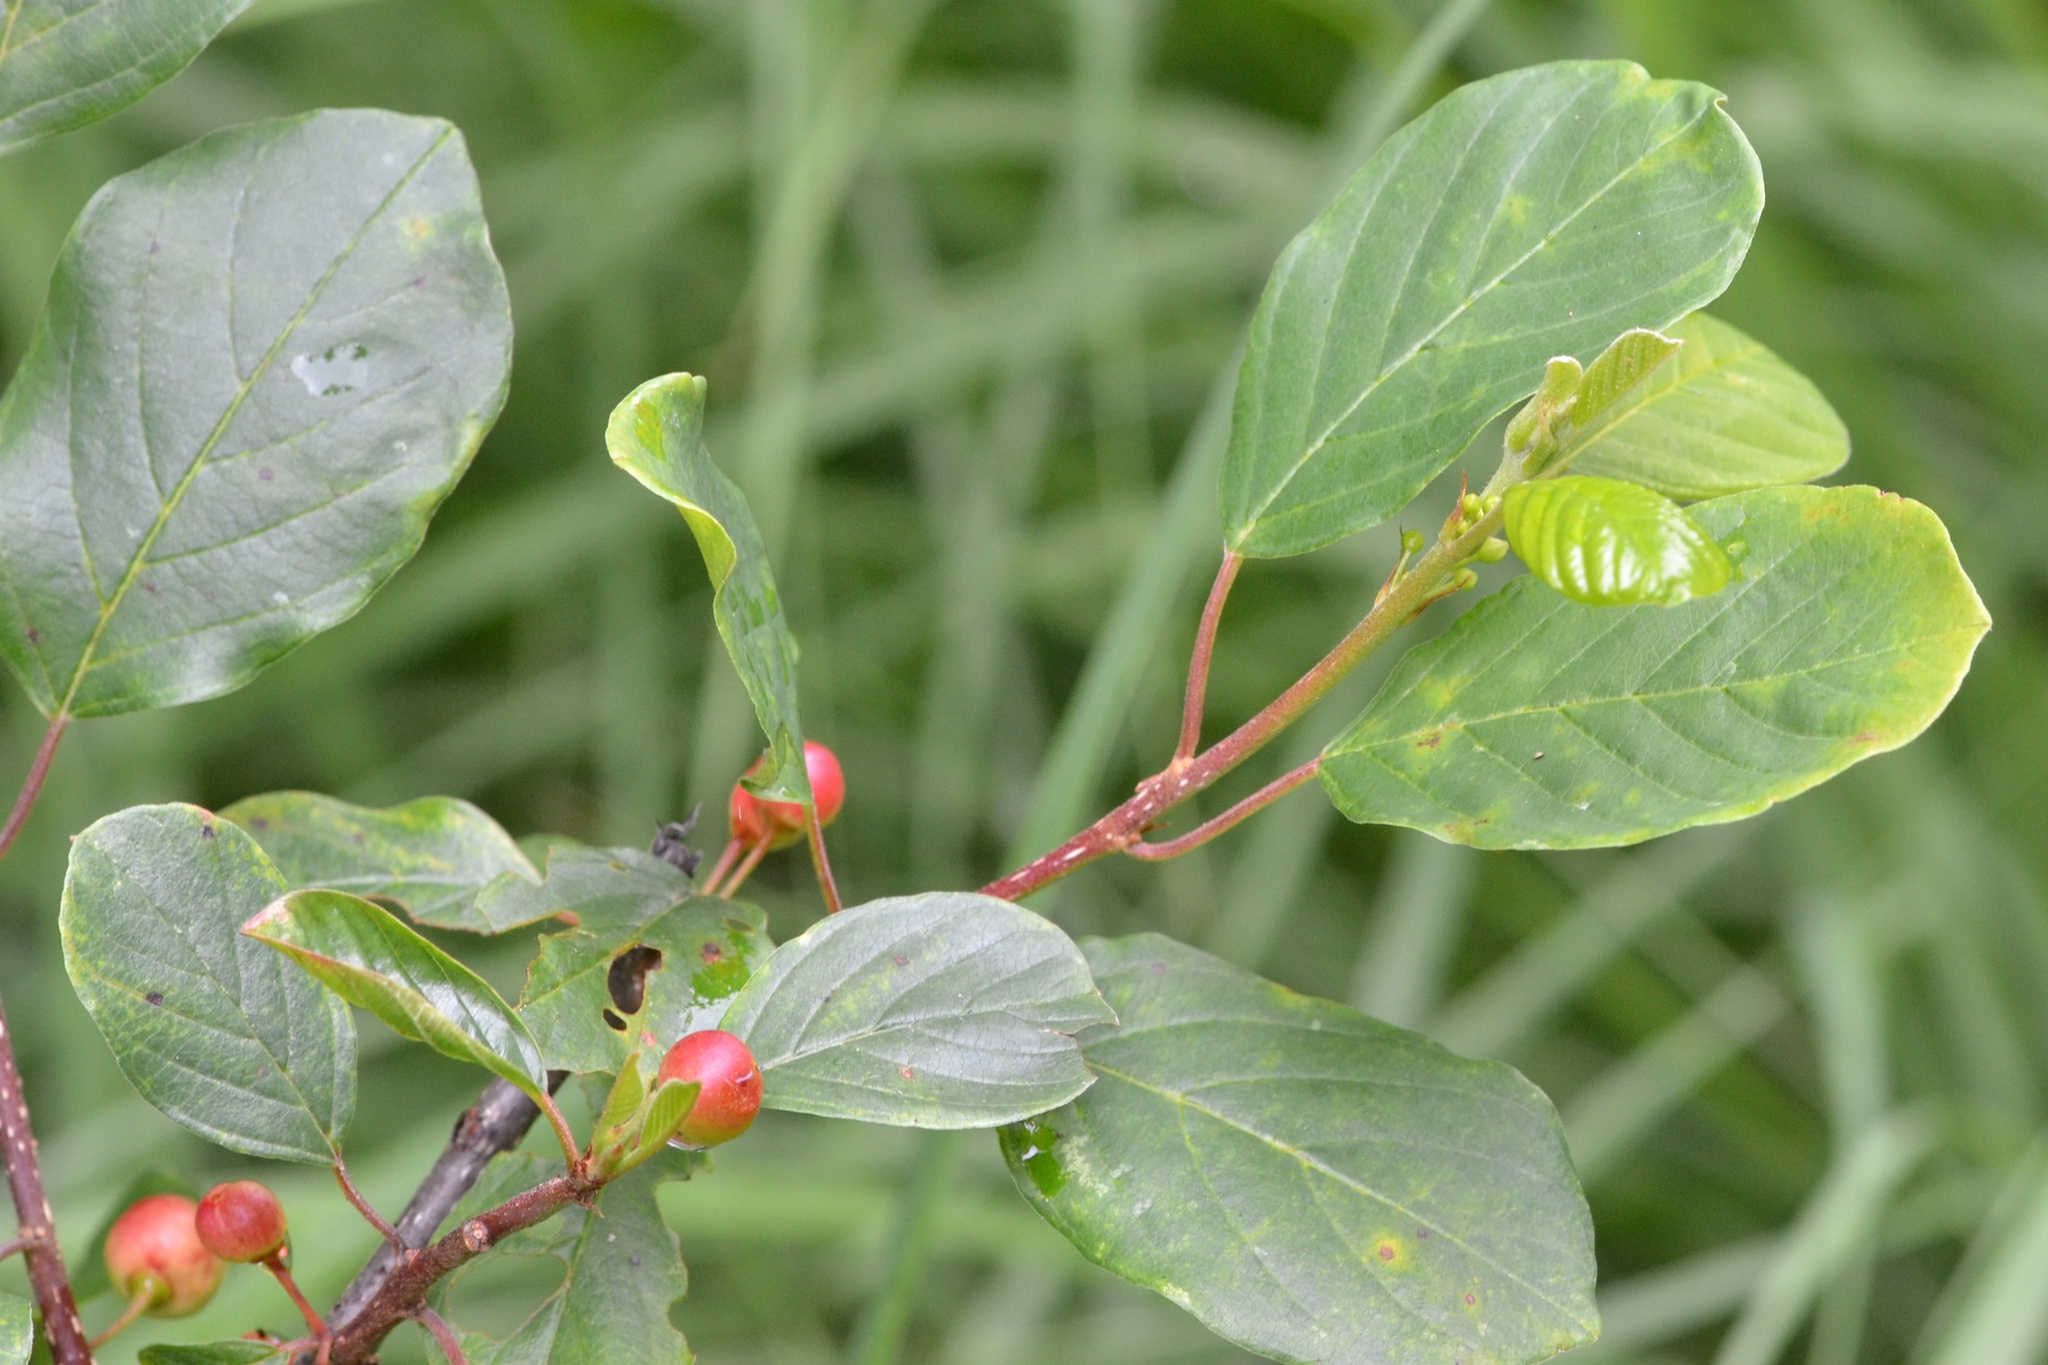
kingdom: Plantae
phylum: Tracheophyta
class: Magnoliopsida
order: Rosales
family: Rhamnaceae
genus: Frangula
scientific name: Frangula alnus
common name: Alder buckthorn
